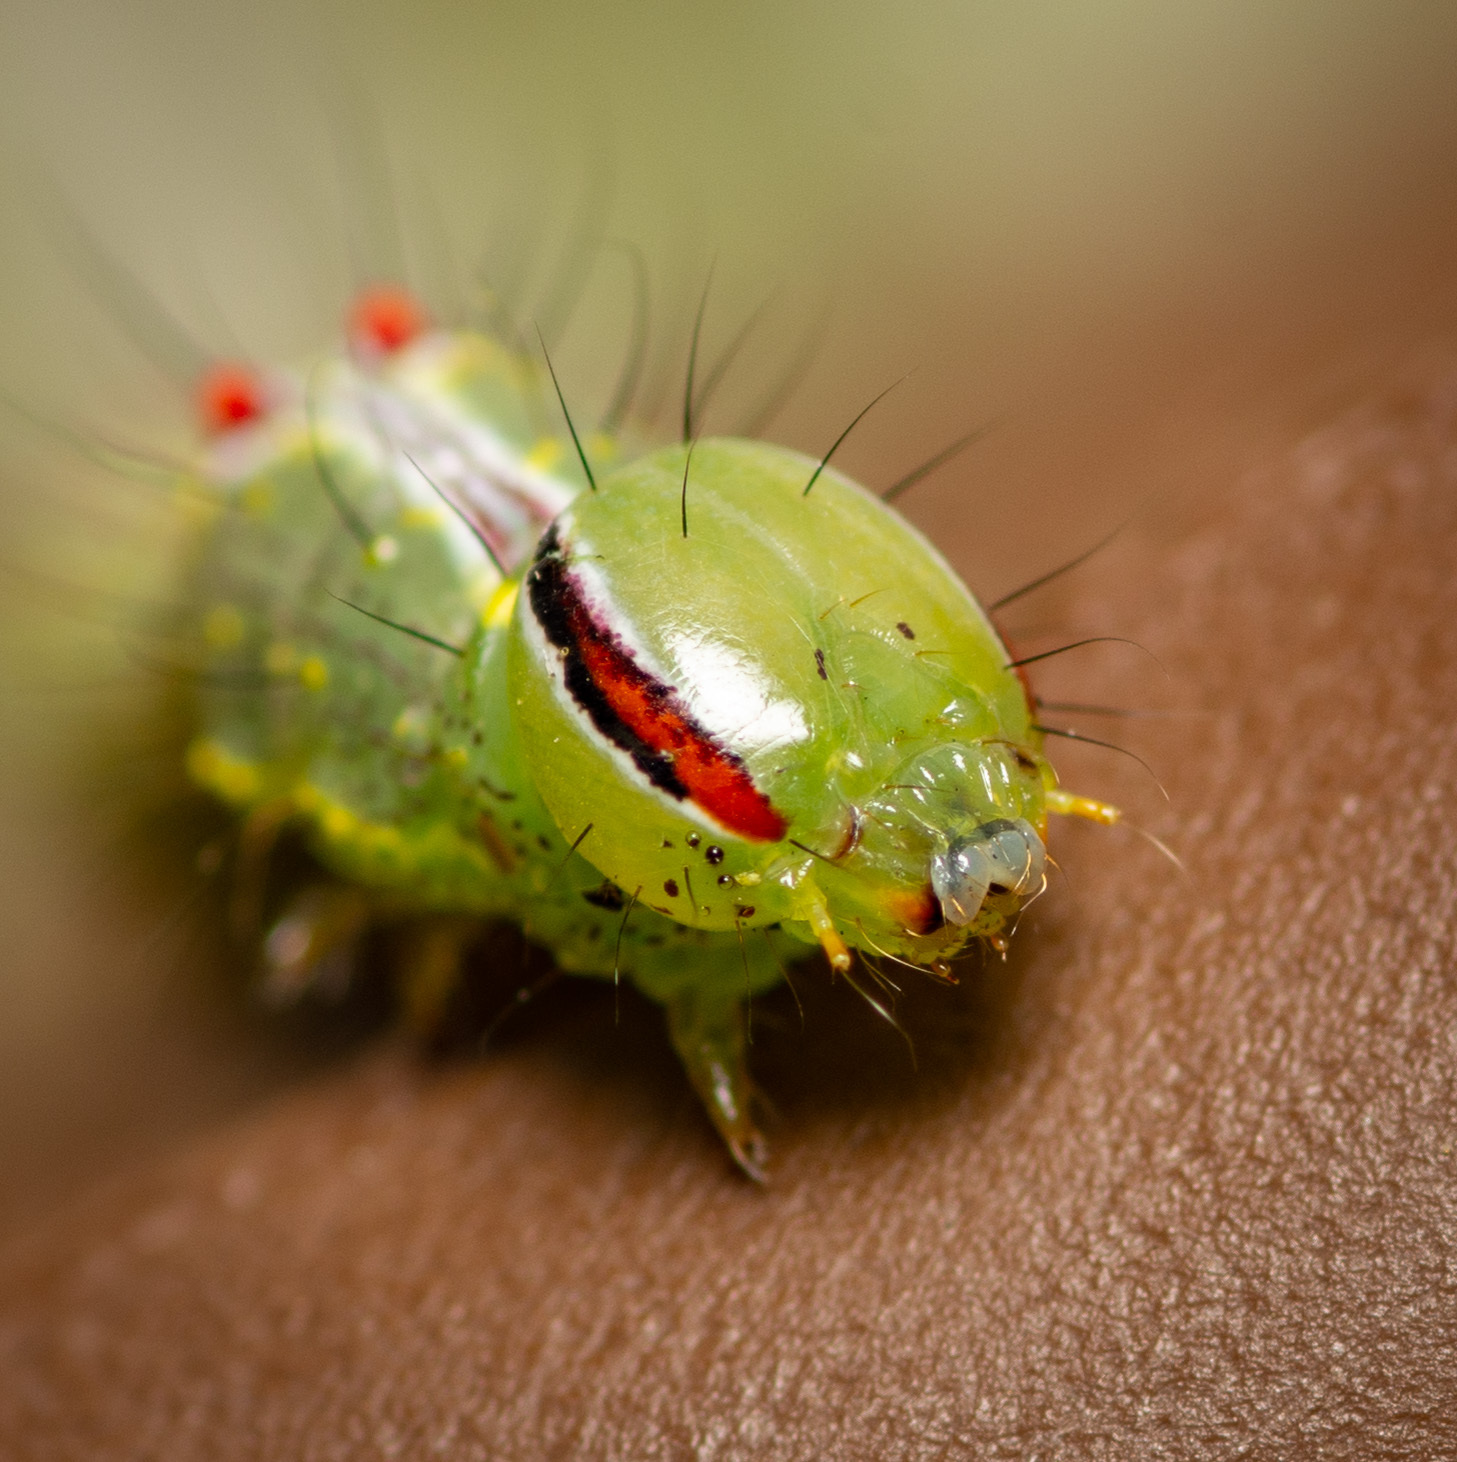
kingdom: Animalia
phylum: Arthropoda
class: Insecta
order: Lepidoptera
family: Notodontidae
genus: Lochmaeus
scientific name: Lochmaeus bilineata
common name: Double-lined prominent
